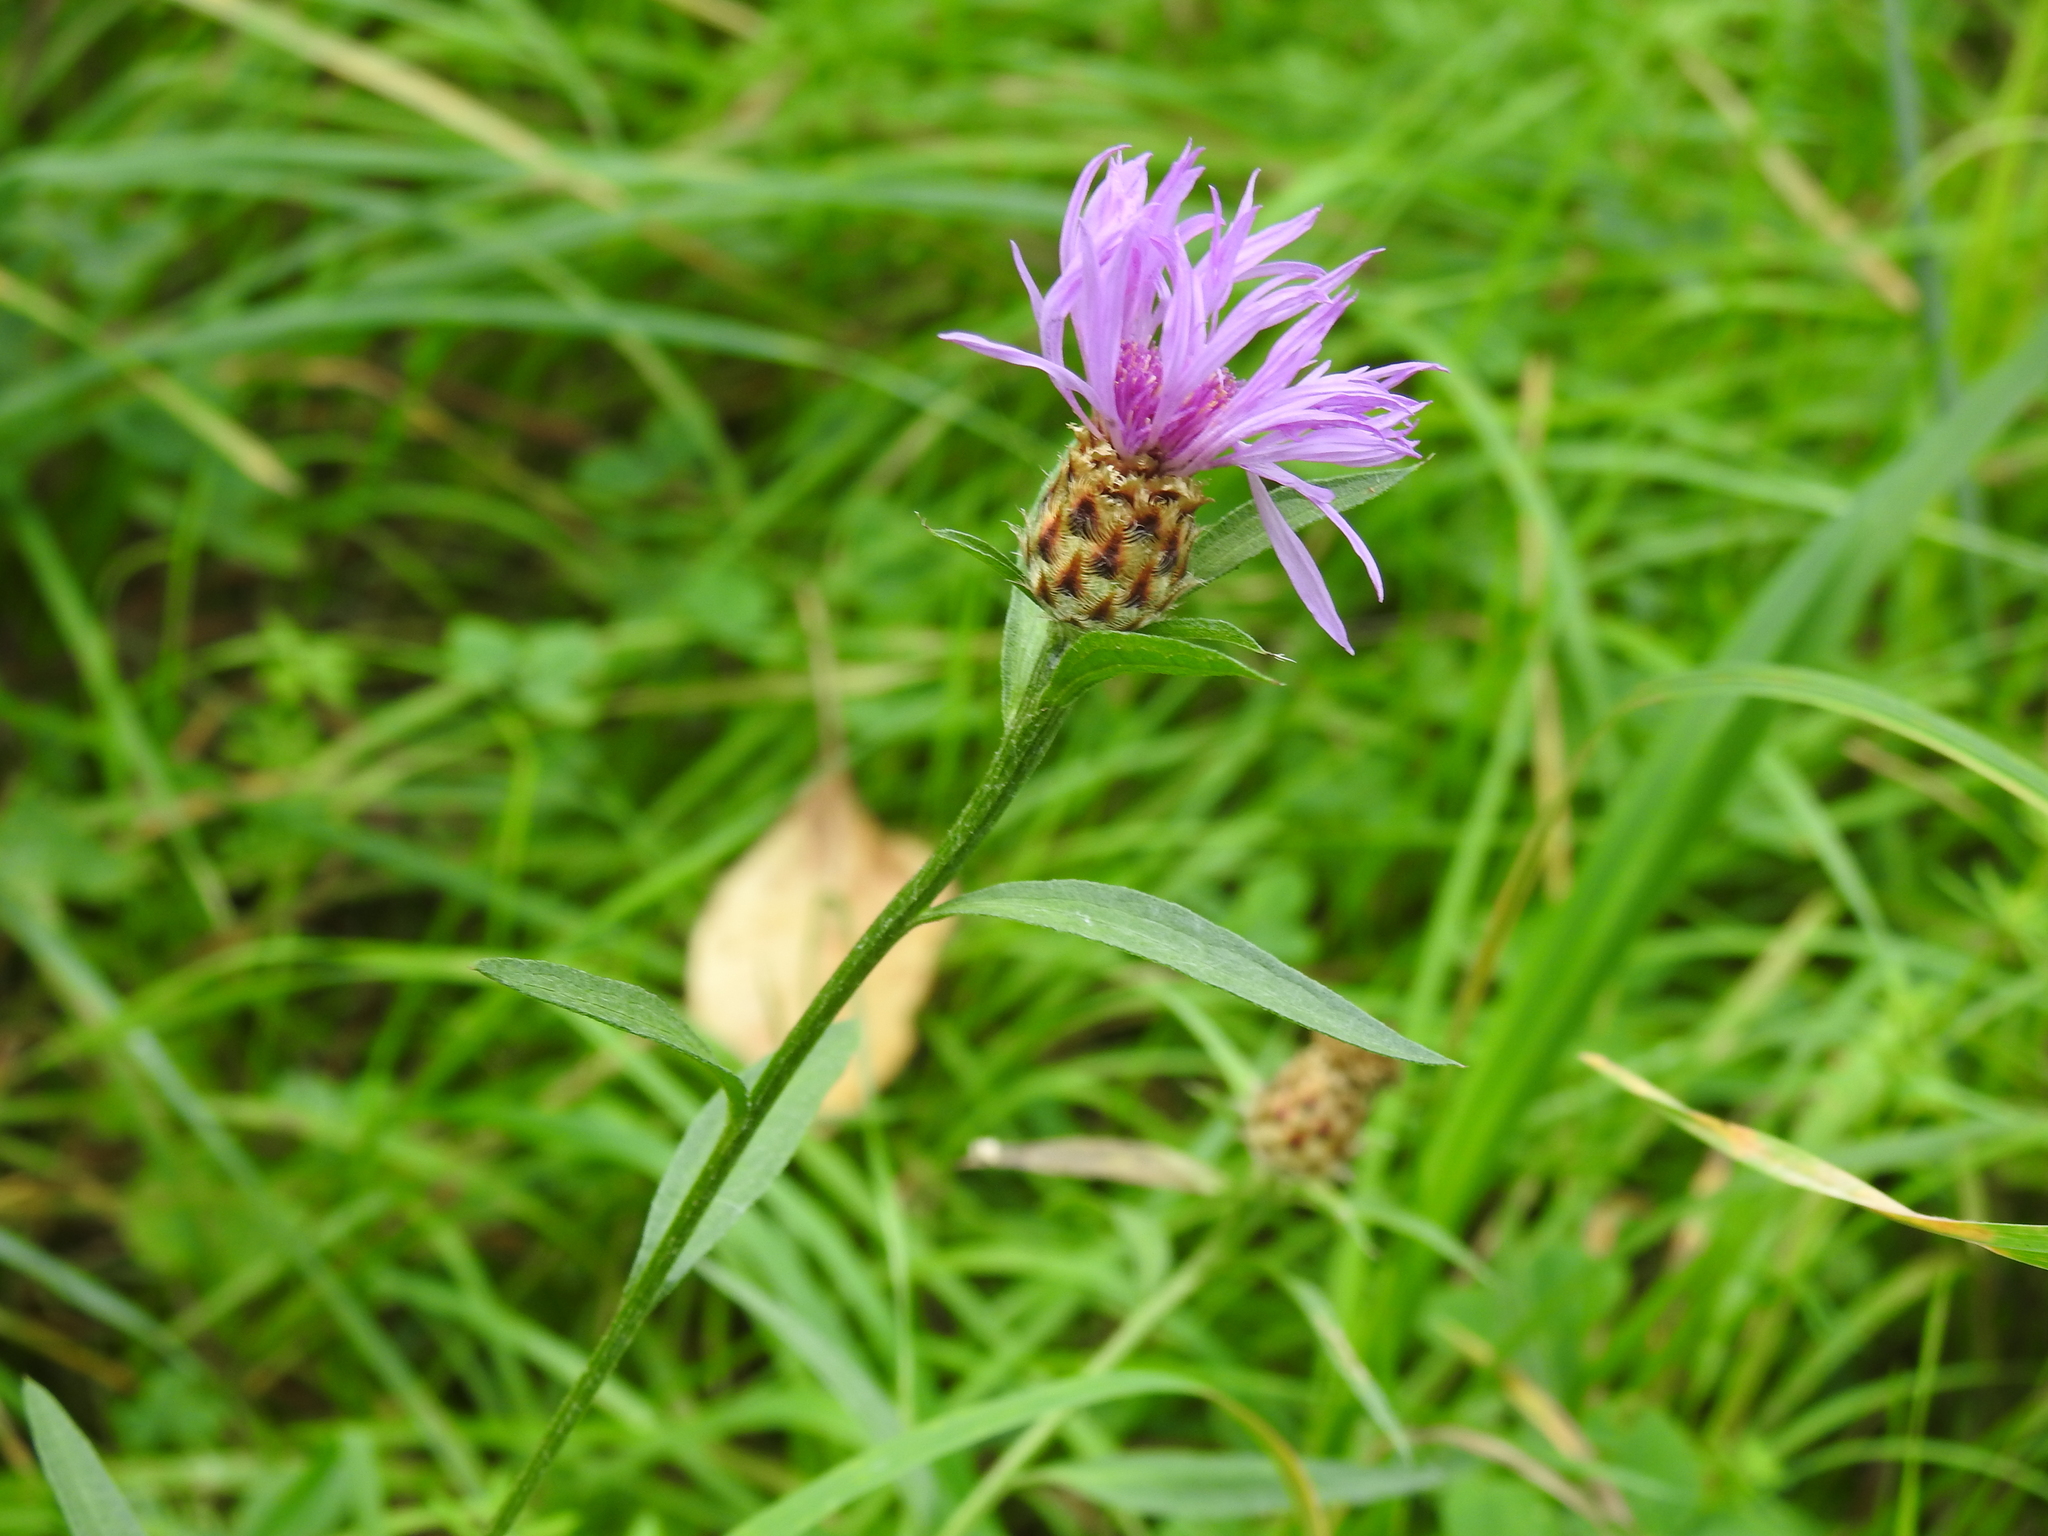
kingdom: Plantae
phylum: Tracheophyta
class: Magnoliopsida
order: Asterales
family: Asteraceae
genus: Centaurea
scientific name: Centaurea jacea
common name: Brown knapweed
